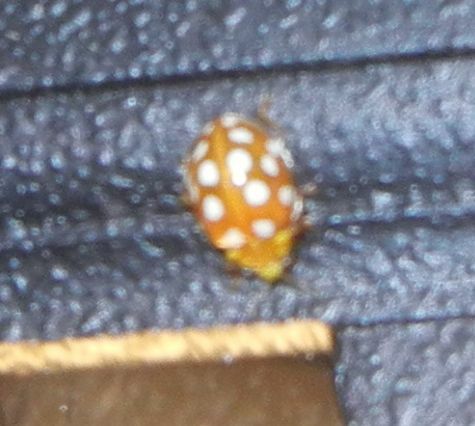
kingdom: Animalia
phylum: Arthropoda
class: Insecta
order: Coleoptera
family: Coccinellidae
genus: Halyzia
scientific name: Halyzia sedecimguttata
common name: Orange ladybird
